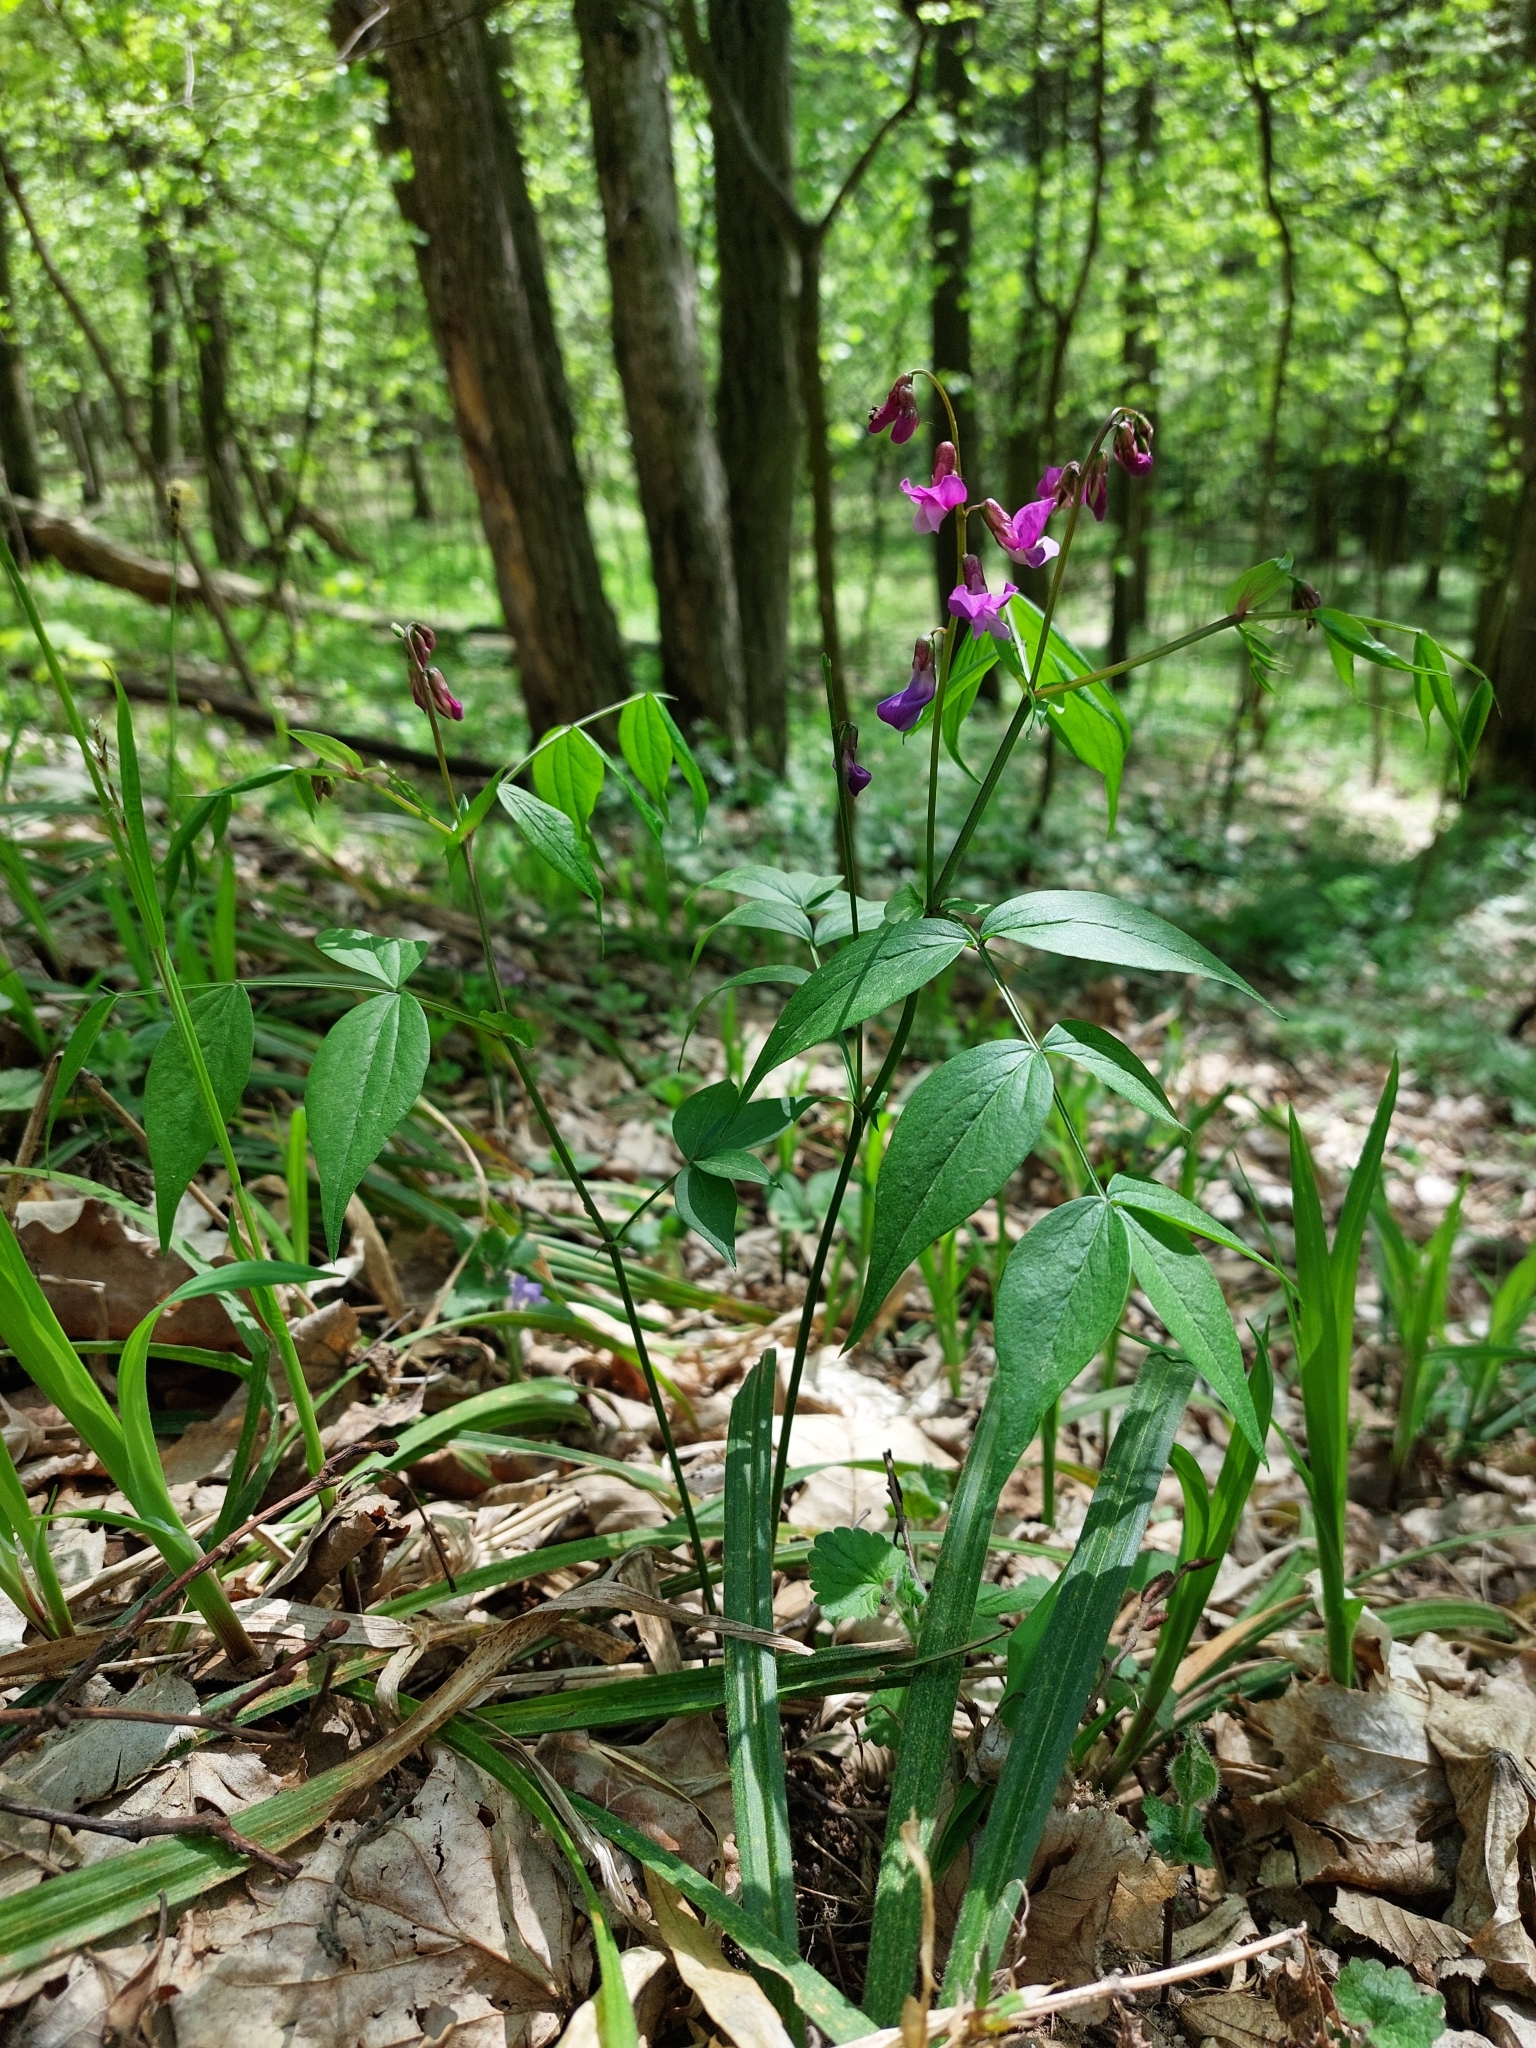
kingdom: Plantae
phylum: Tracheophyta
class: Magnoliopsida
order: Fabales
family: Fabaceae
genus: Lathyrus
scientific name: Lathyrus vernus
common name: Spring pea
